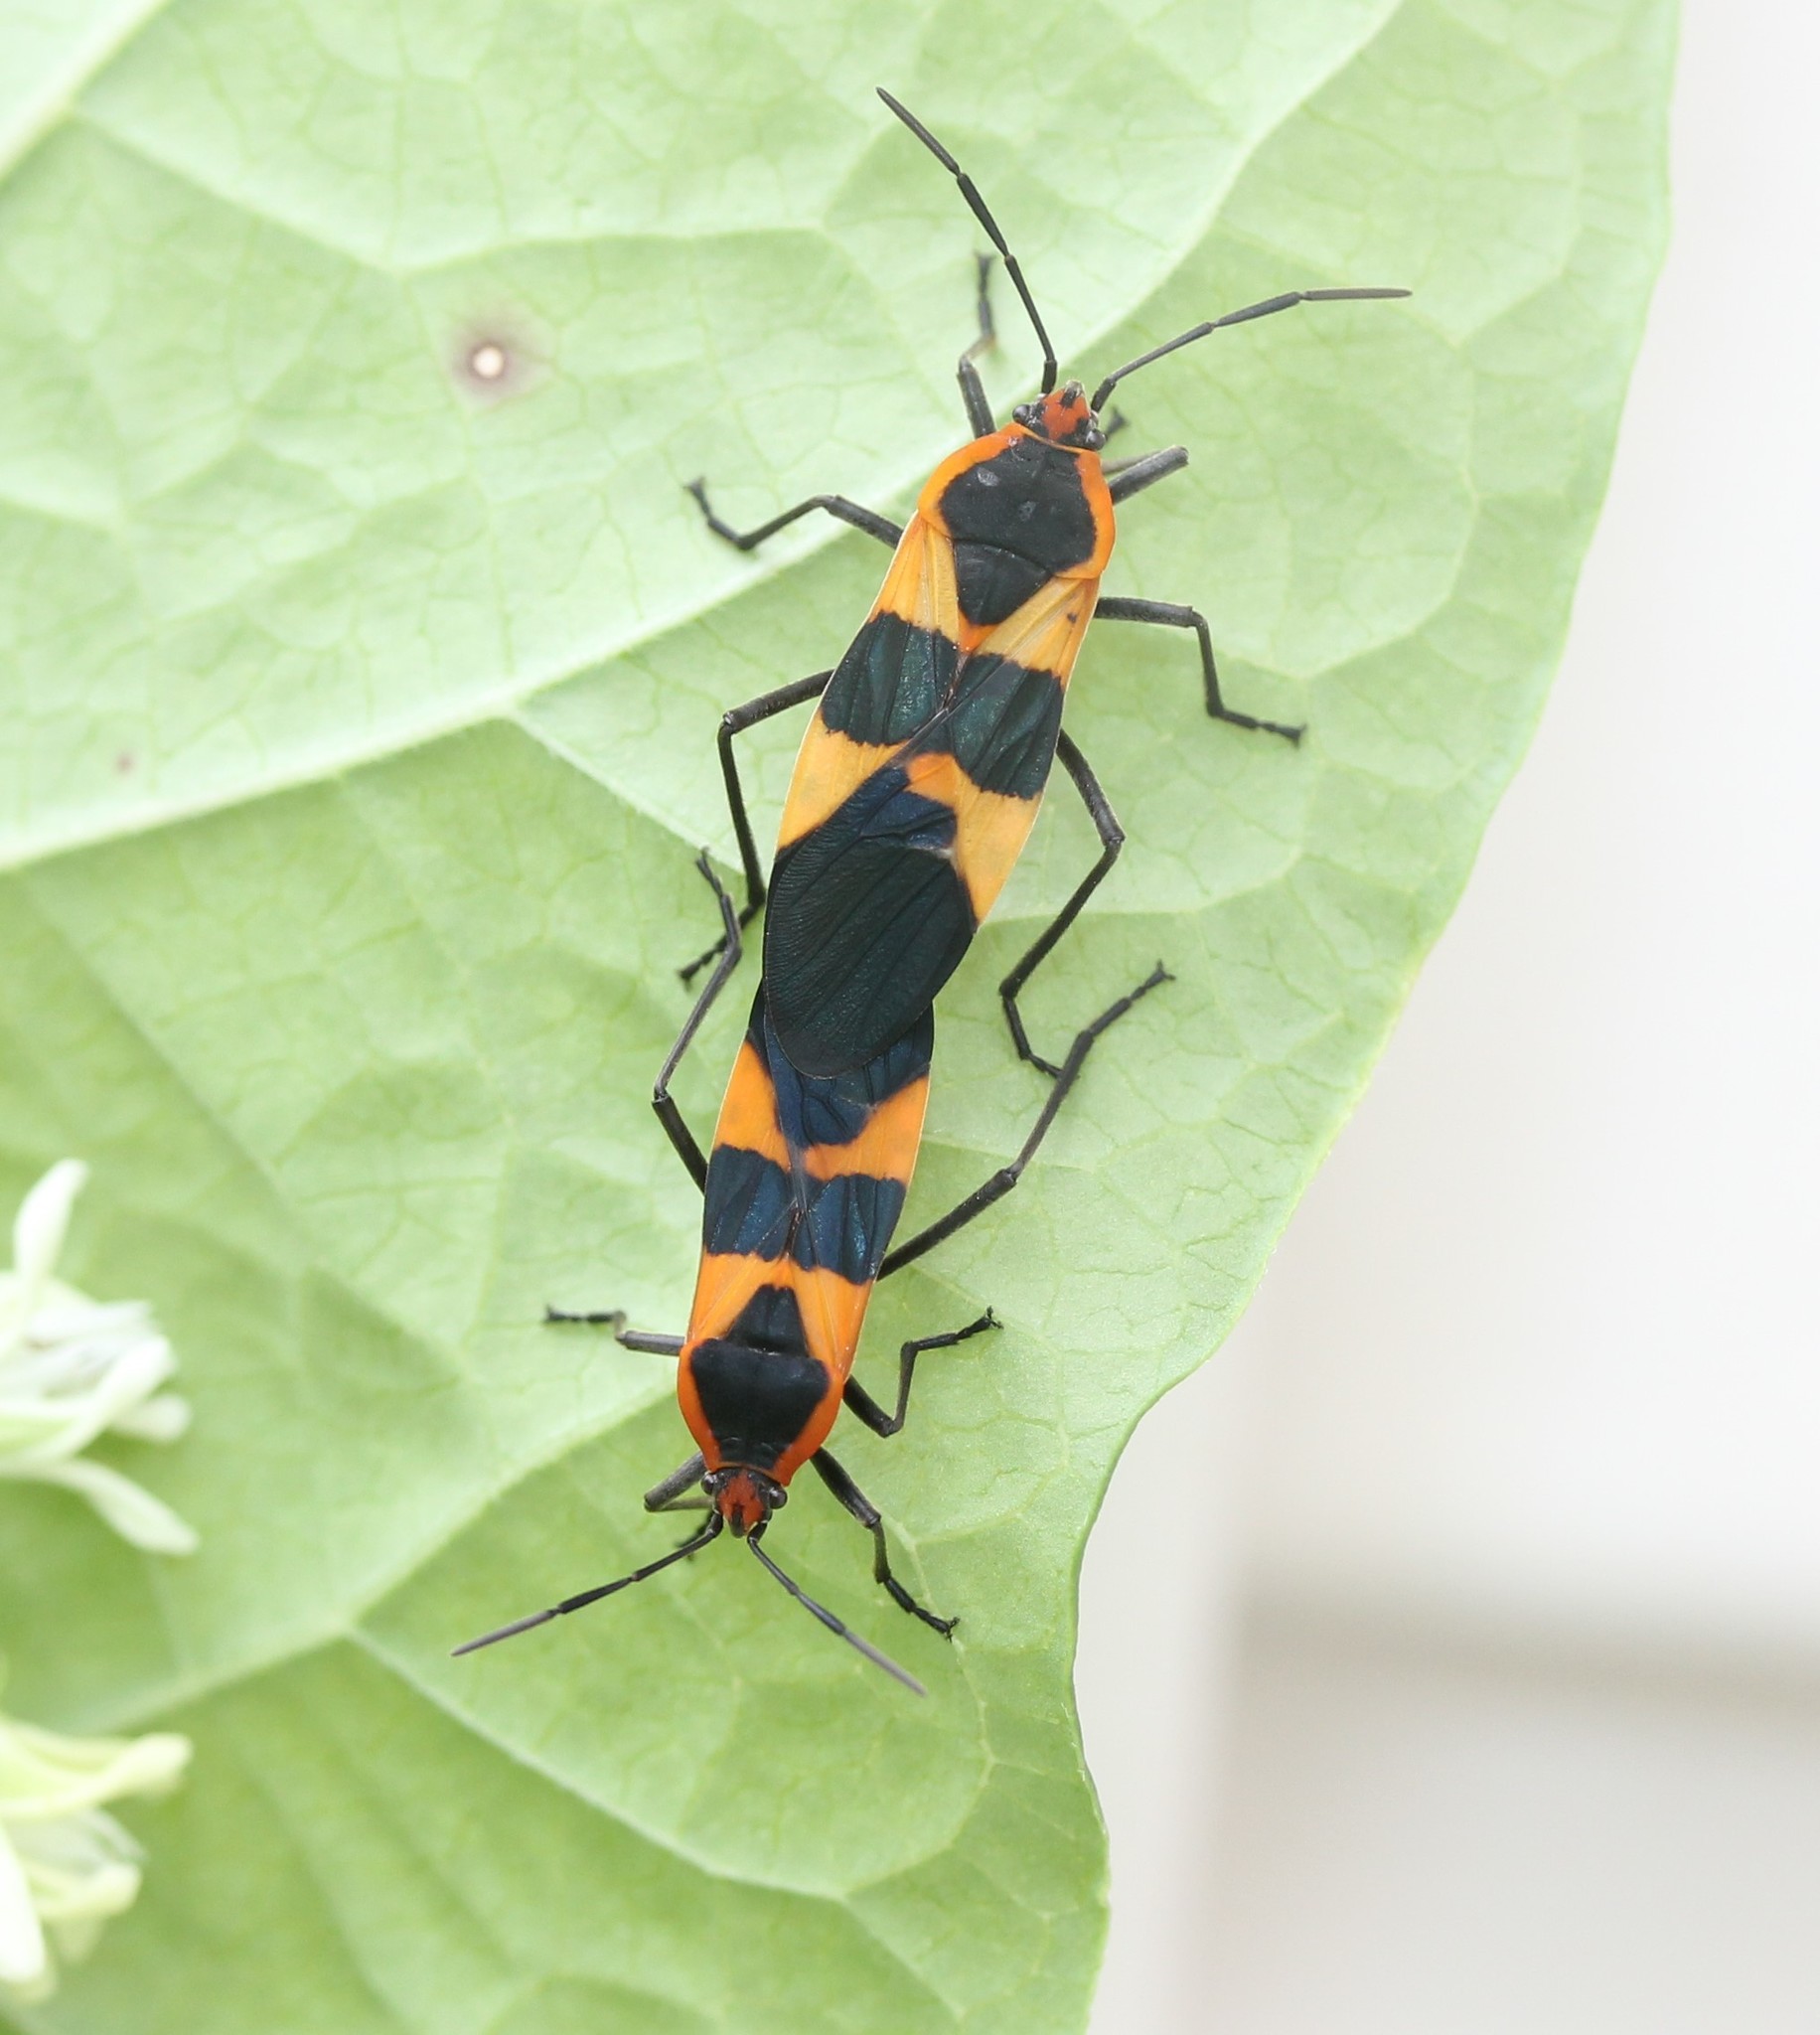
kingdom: Animalia
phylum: Arthropoda
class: Insecta
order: Hemiptera
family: Lygaeidae
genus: Oncopeltus
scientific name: Oncopeltus fasciatus
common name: Large milkweed bug
